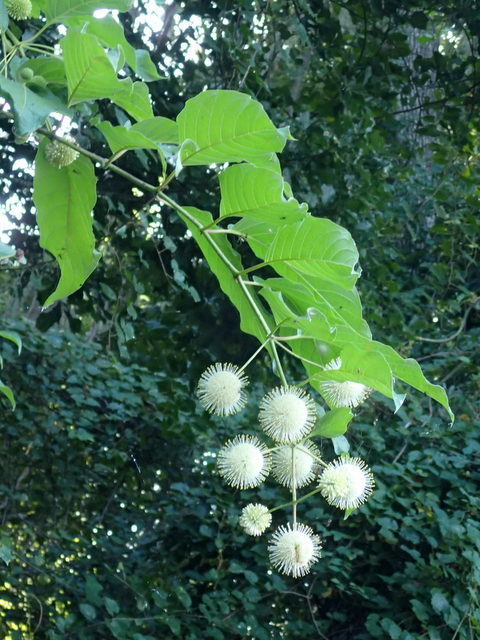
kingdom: Plantae
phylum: Tracheophyta
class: Magnoliopsida
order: Gentianales
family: Rubiaceae
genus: Cephalanthus
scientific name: Cephalanthus occidentalis
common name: Button-willow
